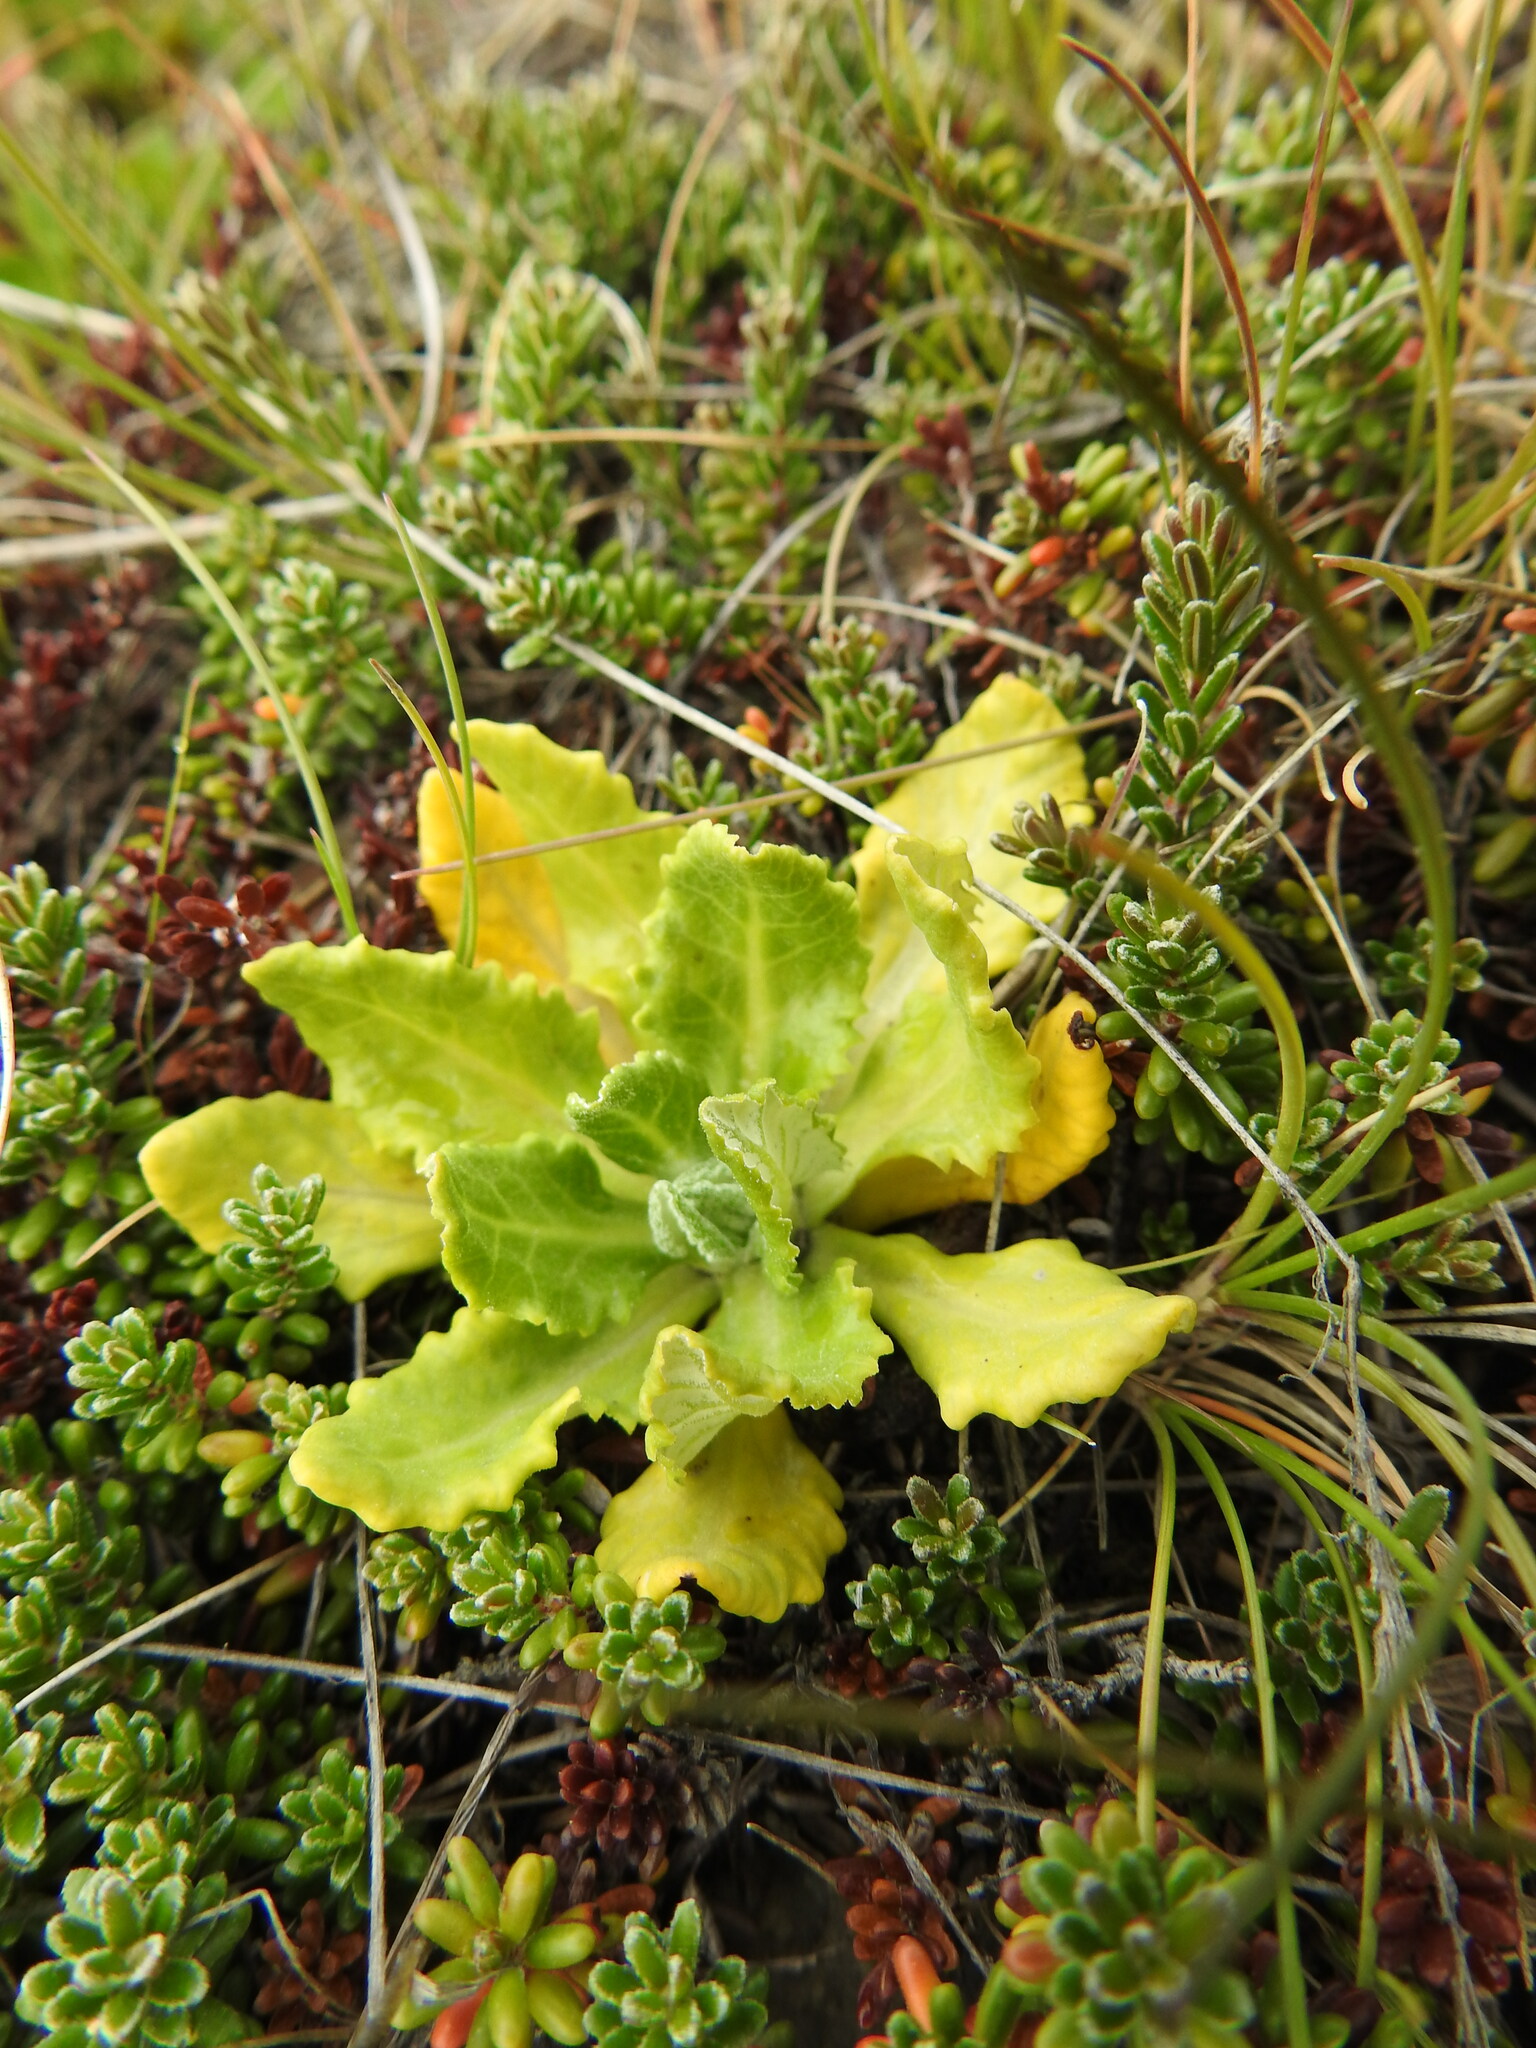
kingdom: Plantae
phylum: Tracheophyta
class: Magnoliopsida
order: Ericales
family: Primulaceae
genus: Primula
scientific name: Primula magellanica
